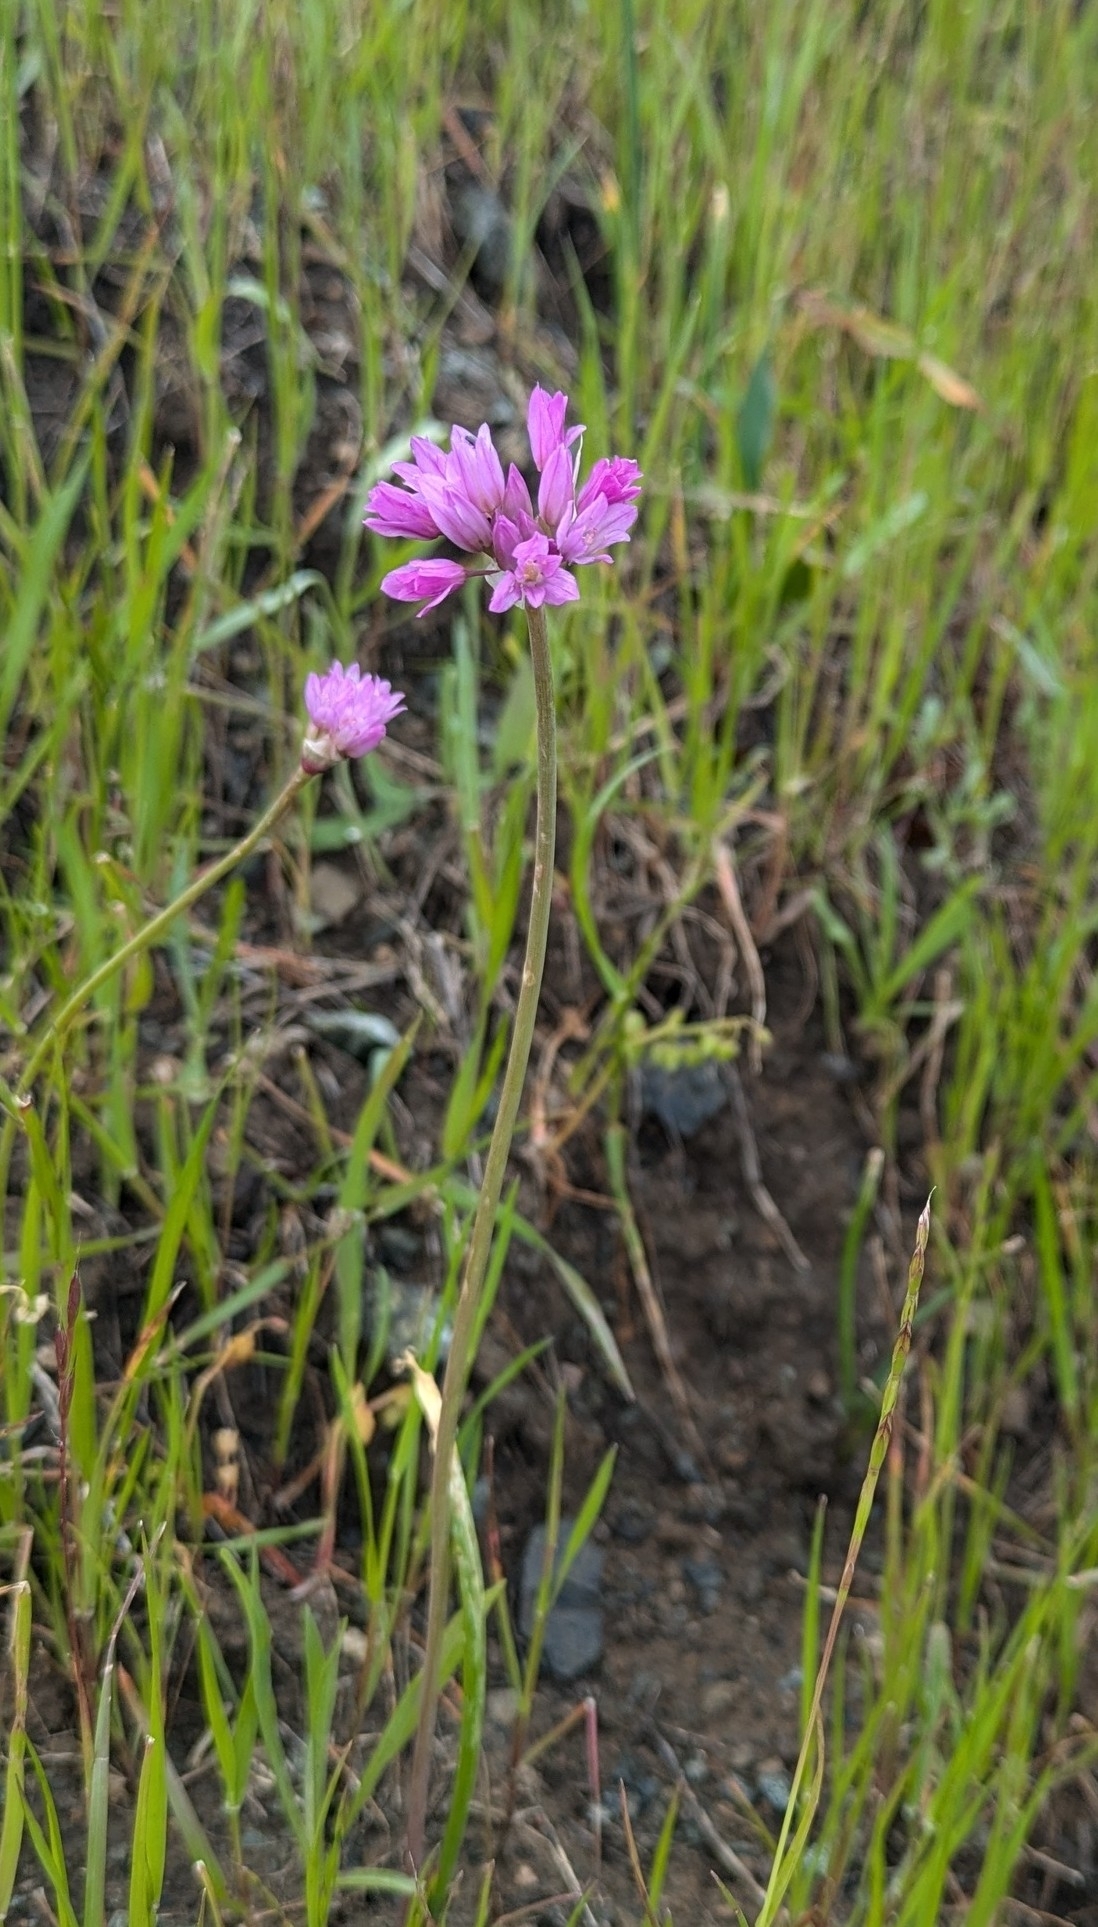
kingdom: Plantae
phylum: Tracheophyta
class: Liliopsida
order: Asparagales
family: Amaryllidaceae
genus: Allium
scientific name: Allium serra
